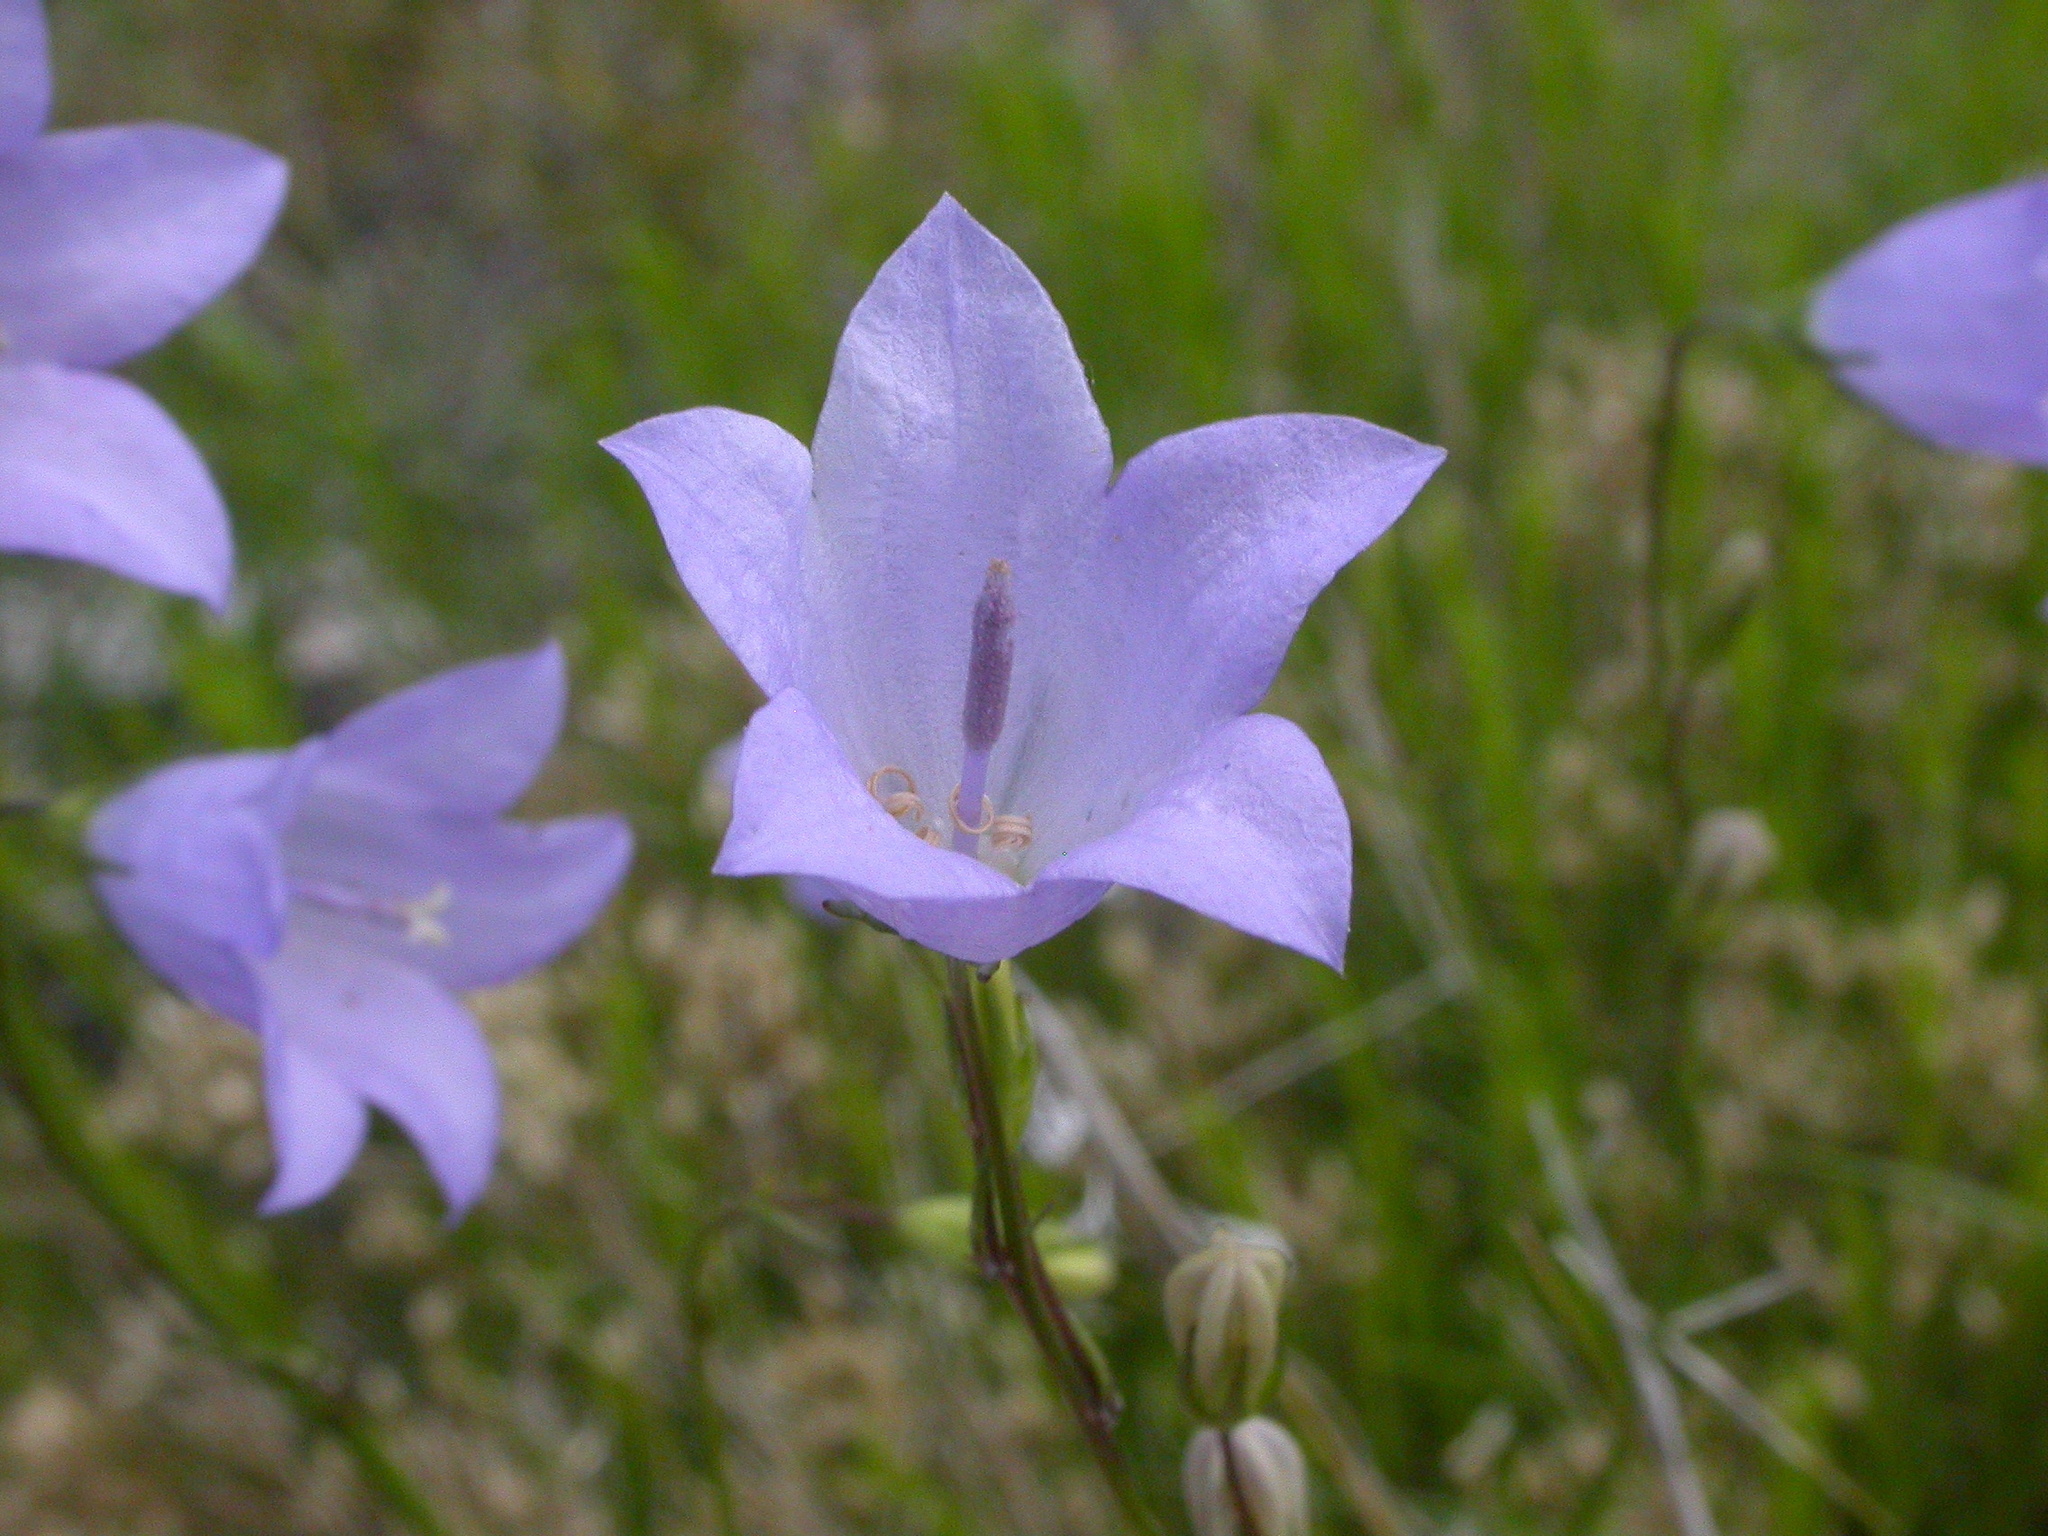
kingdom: Plantae
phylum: Tracheophyta
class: Magnoliopsida
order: Asterales
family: Campanulaceae
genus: Campanula
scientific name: Campanula petiolata
